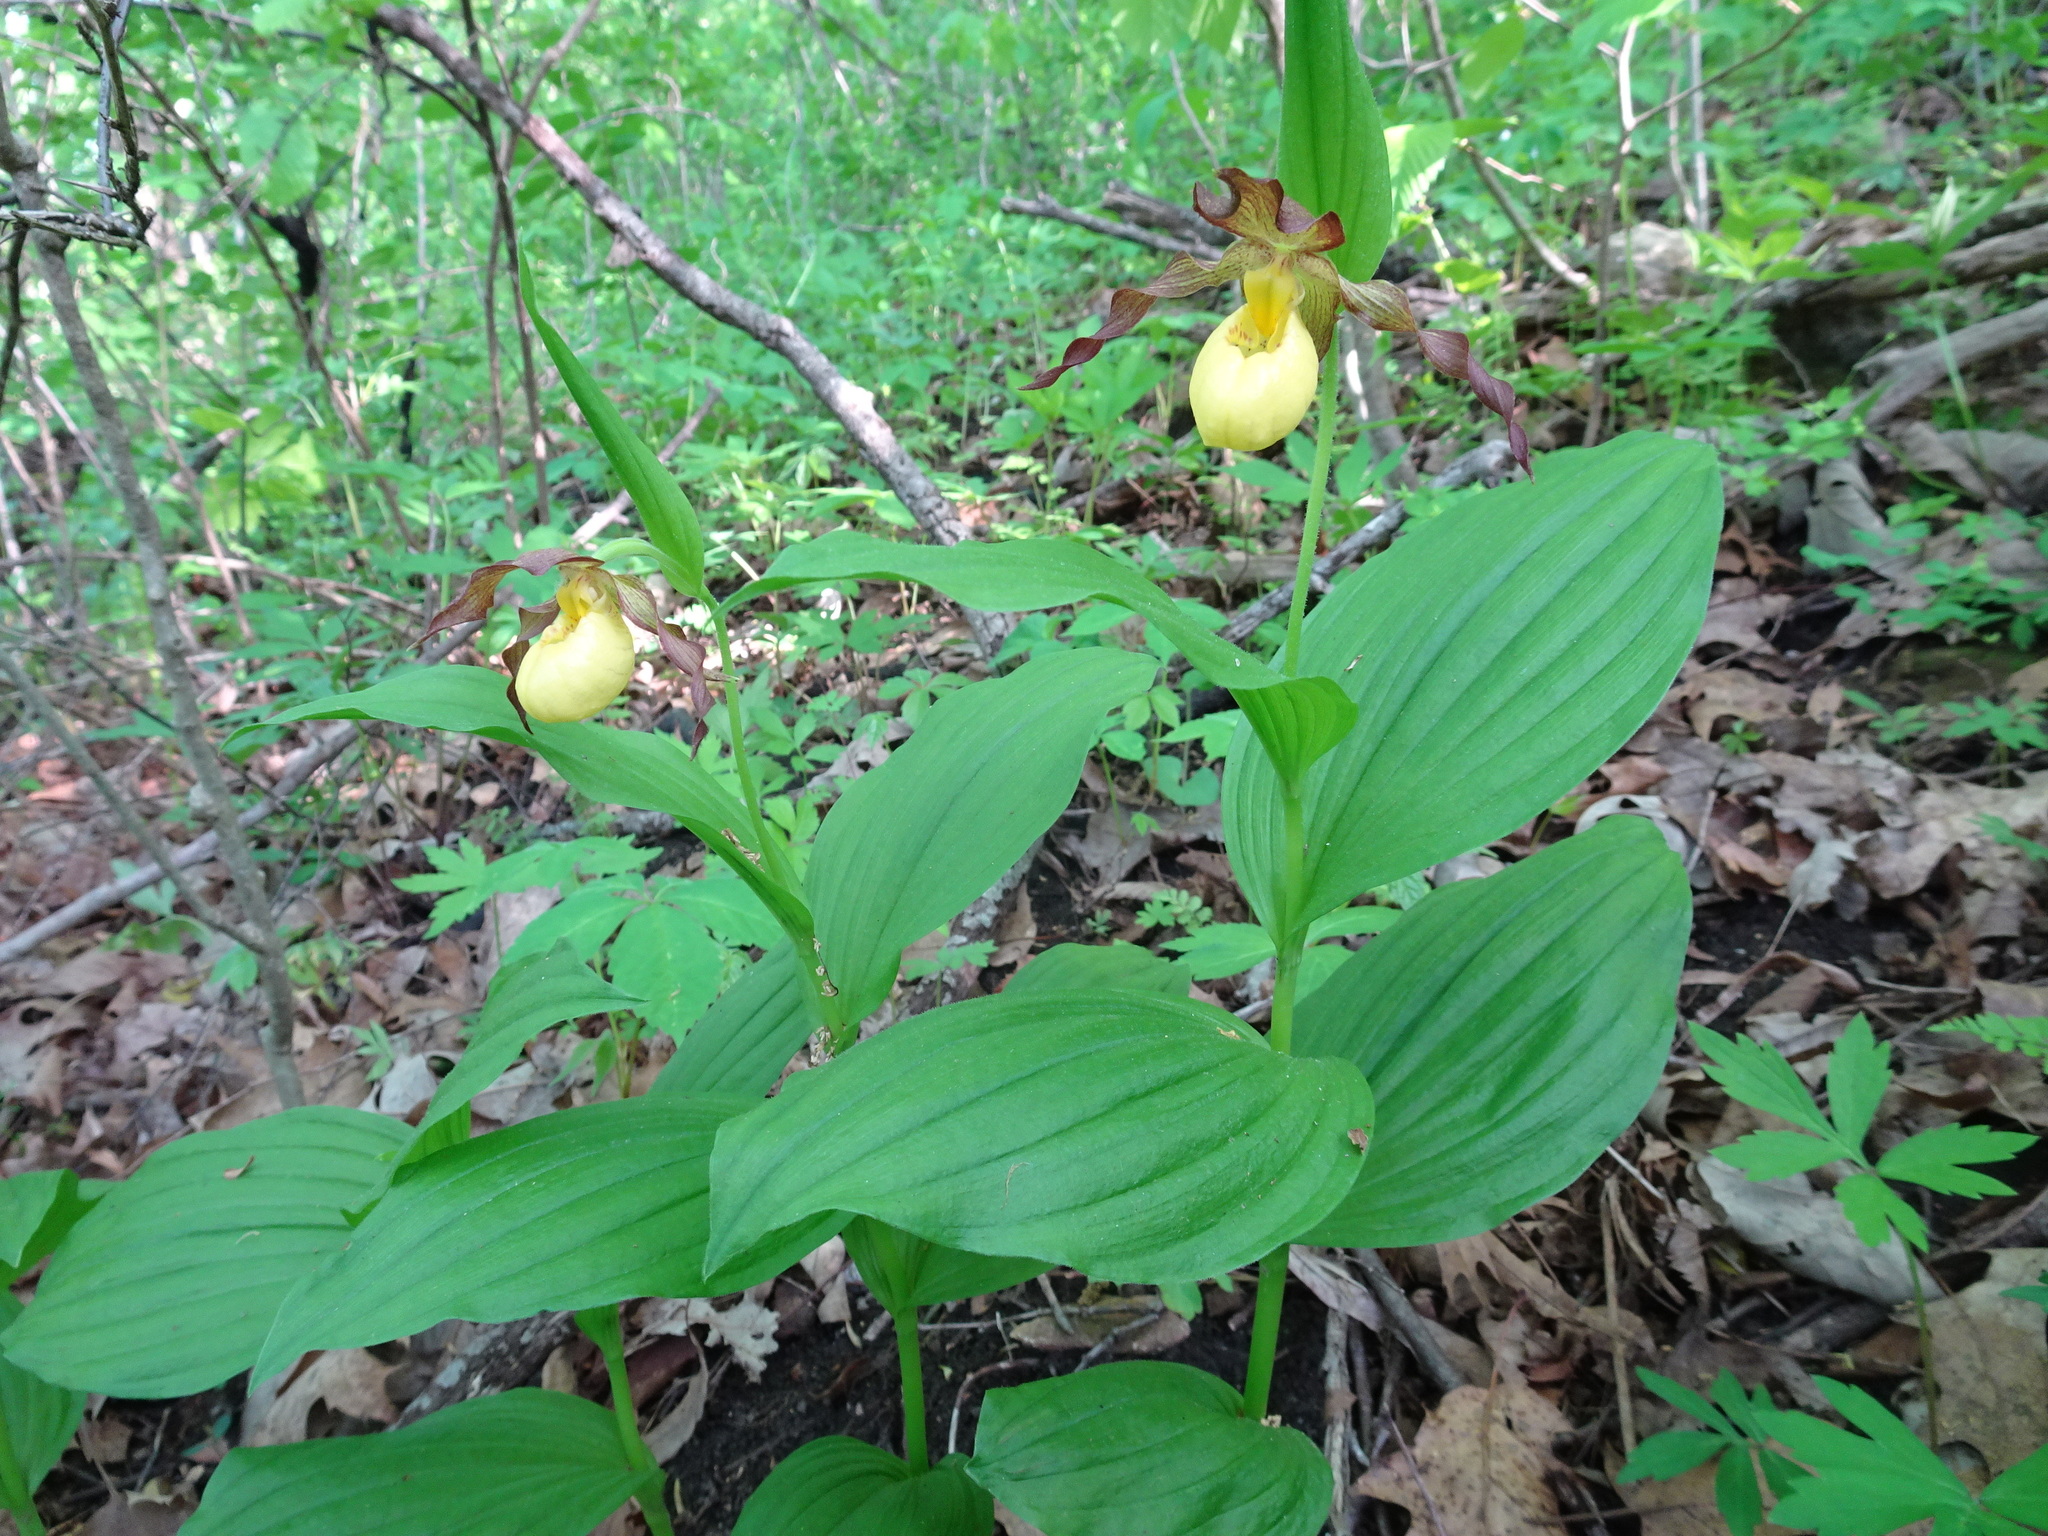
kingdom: Plantae
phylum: Tracheophyta
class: Liliopsida
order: Asparagales
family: Orchidaceae
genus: Cypripedium
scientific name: Cypripedium parviflorum
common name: American yellow lady's-slipper
